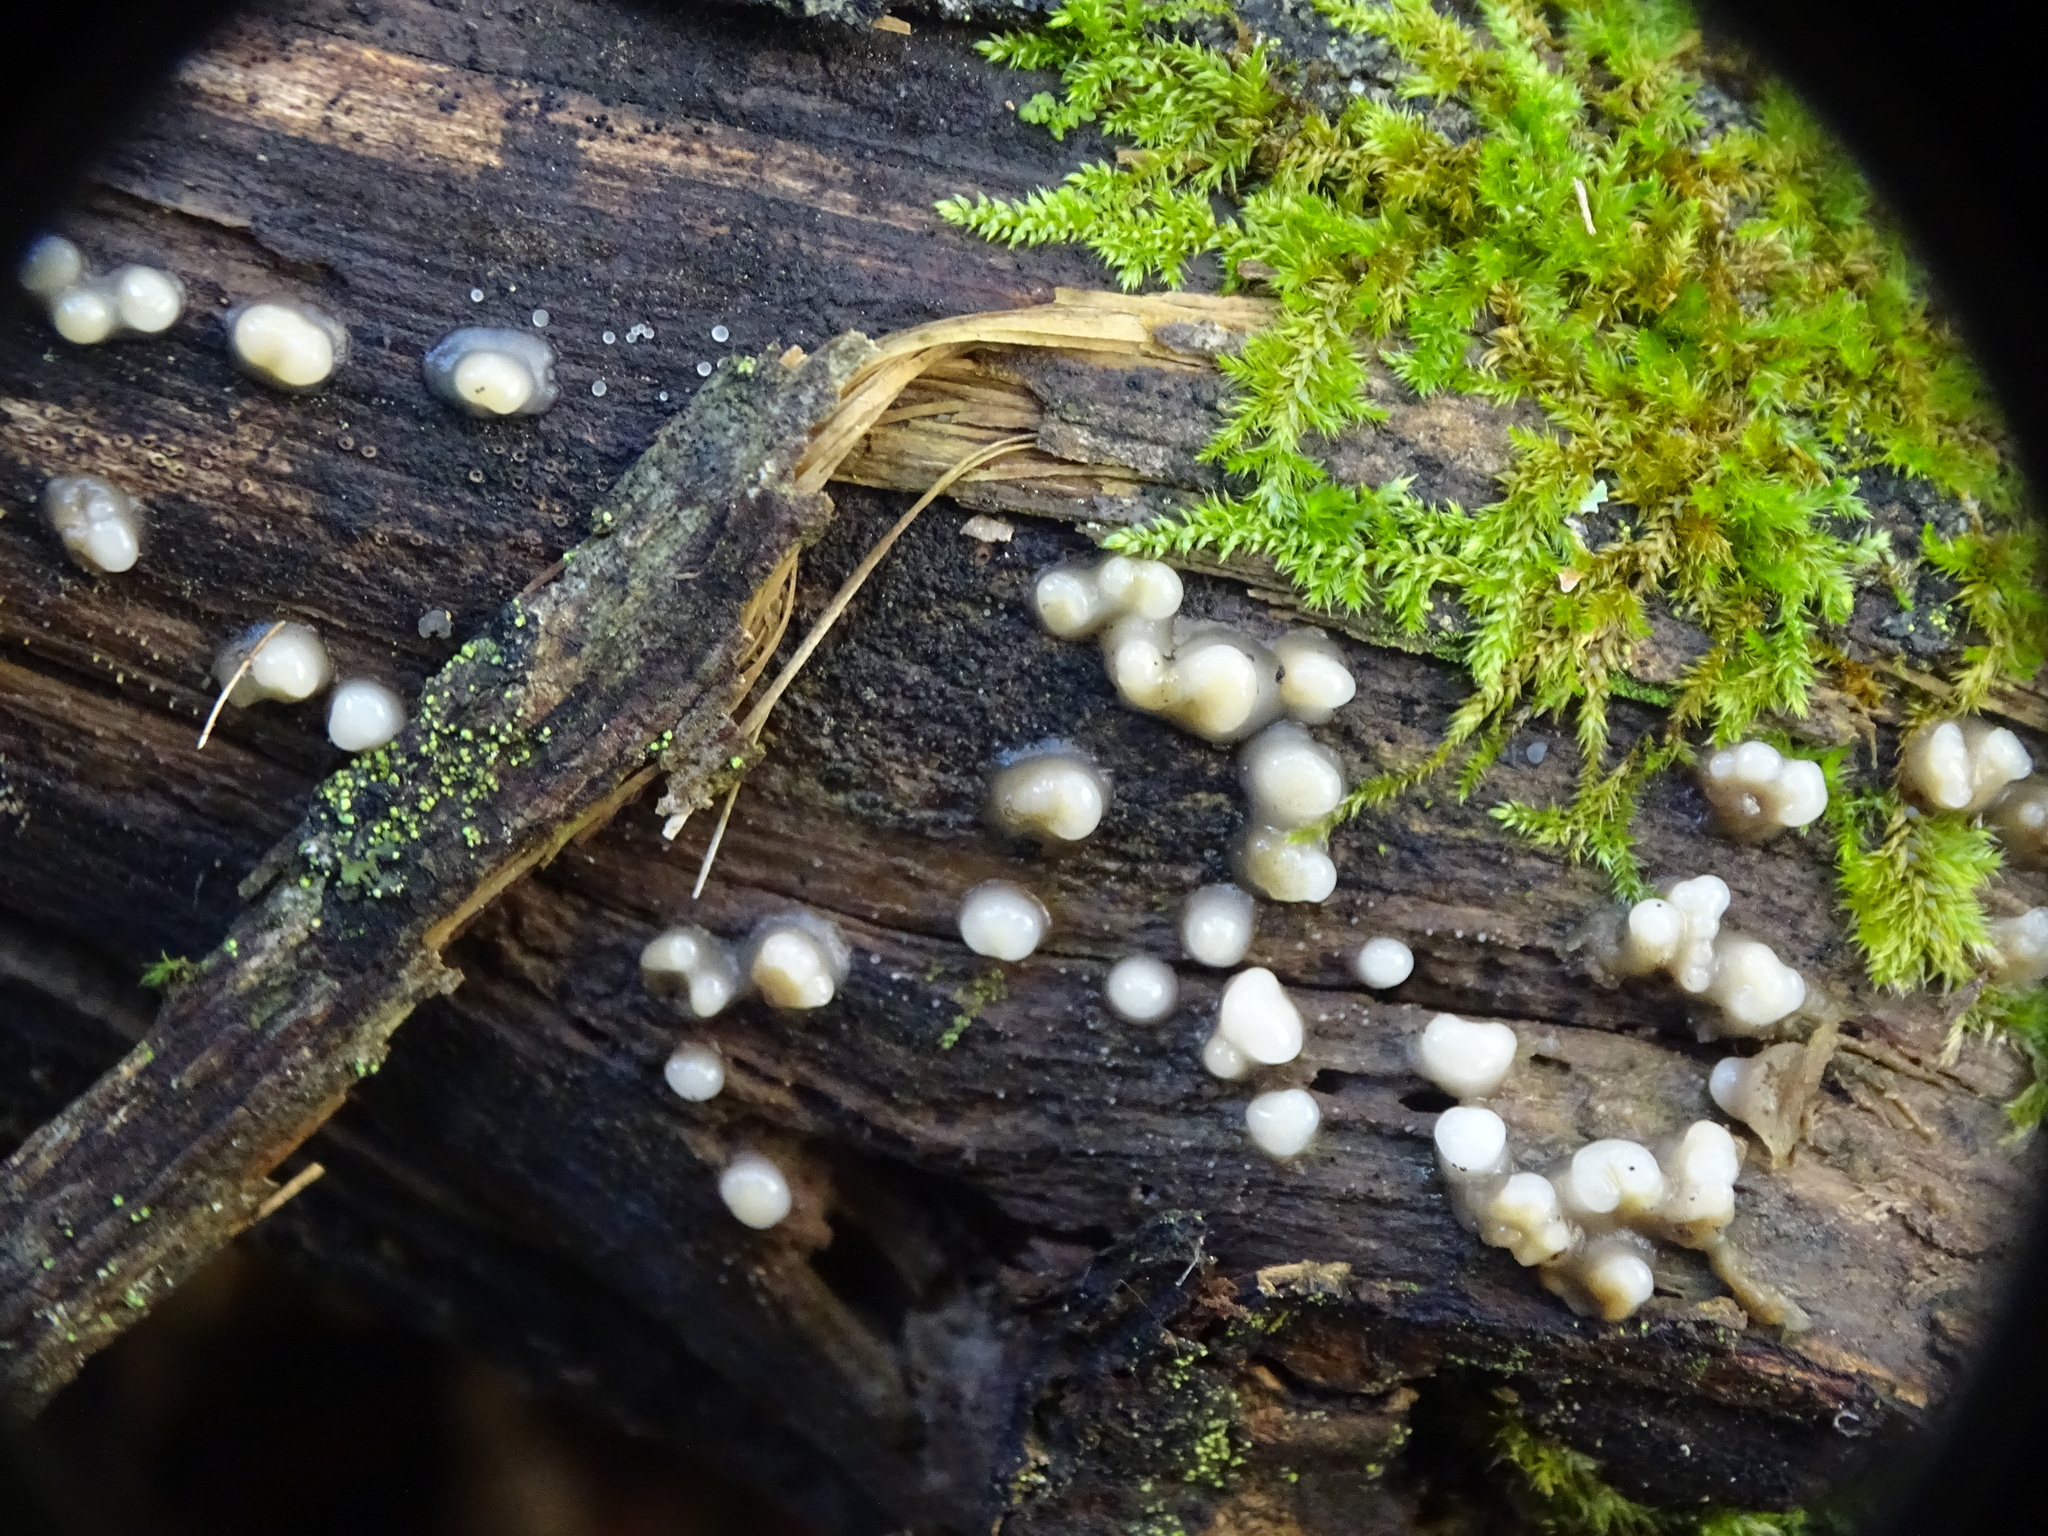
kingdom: Fungi
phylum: Basidiomycota
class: Atractiellomycetes
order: Atractiellales
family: Phleogenaceae
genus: Helicogloea
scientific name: Helicogloea compressa
